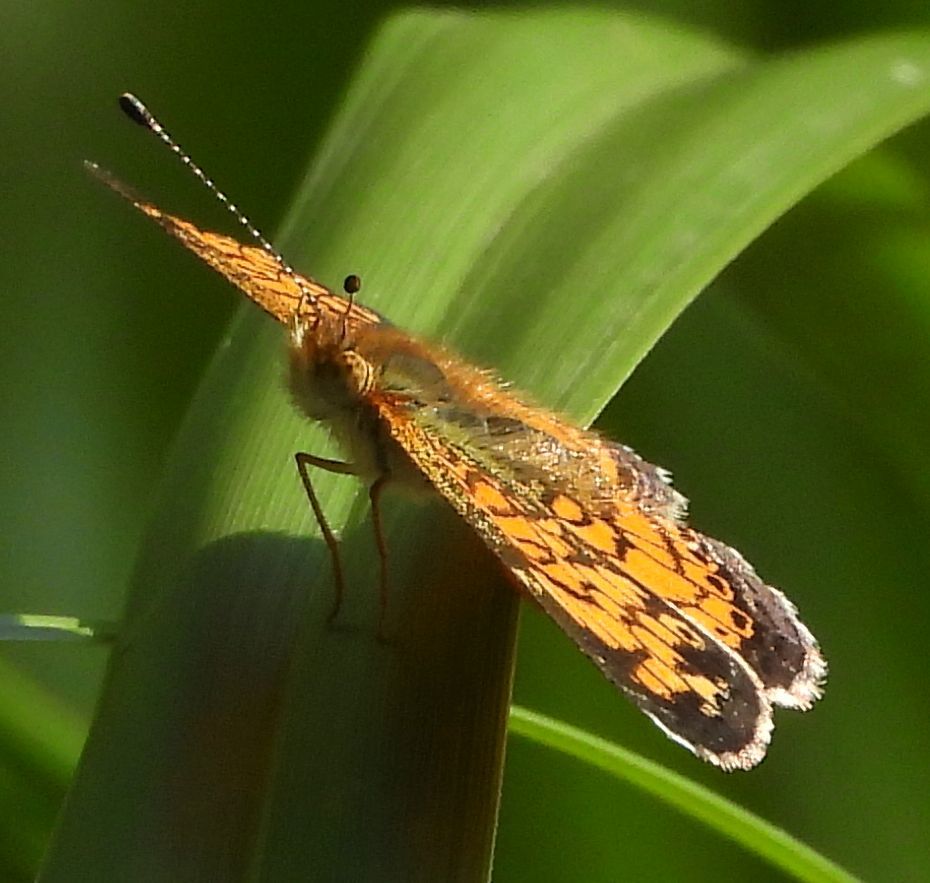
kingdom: Animalia
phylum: Arthropoda
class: Insecta
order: Lepidoptera
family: Nymphalidae
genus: Phyciodes
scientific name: Phyciodes tharos
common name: Pearl crescent
